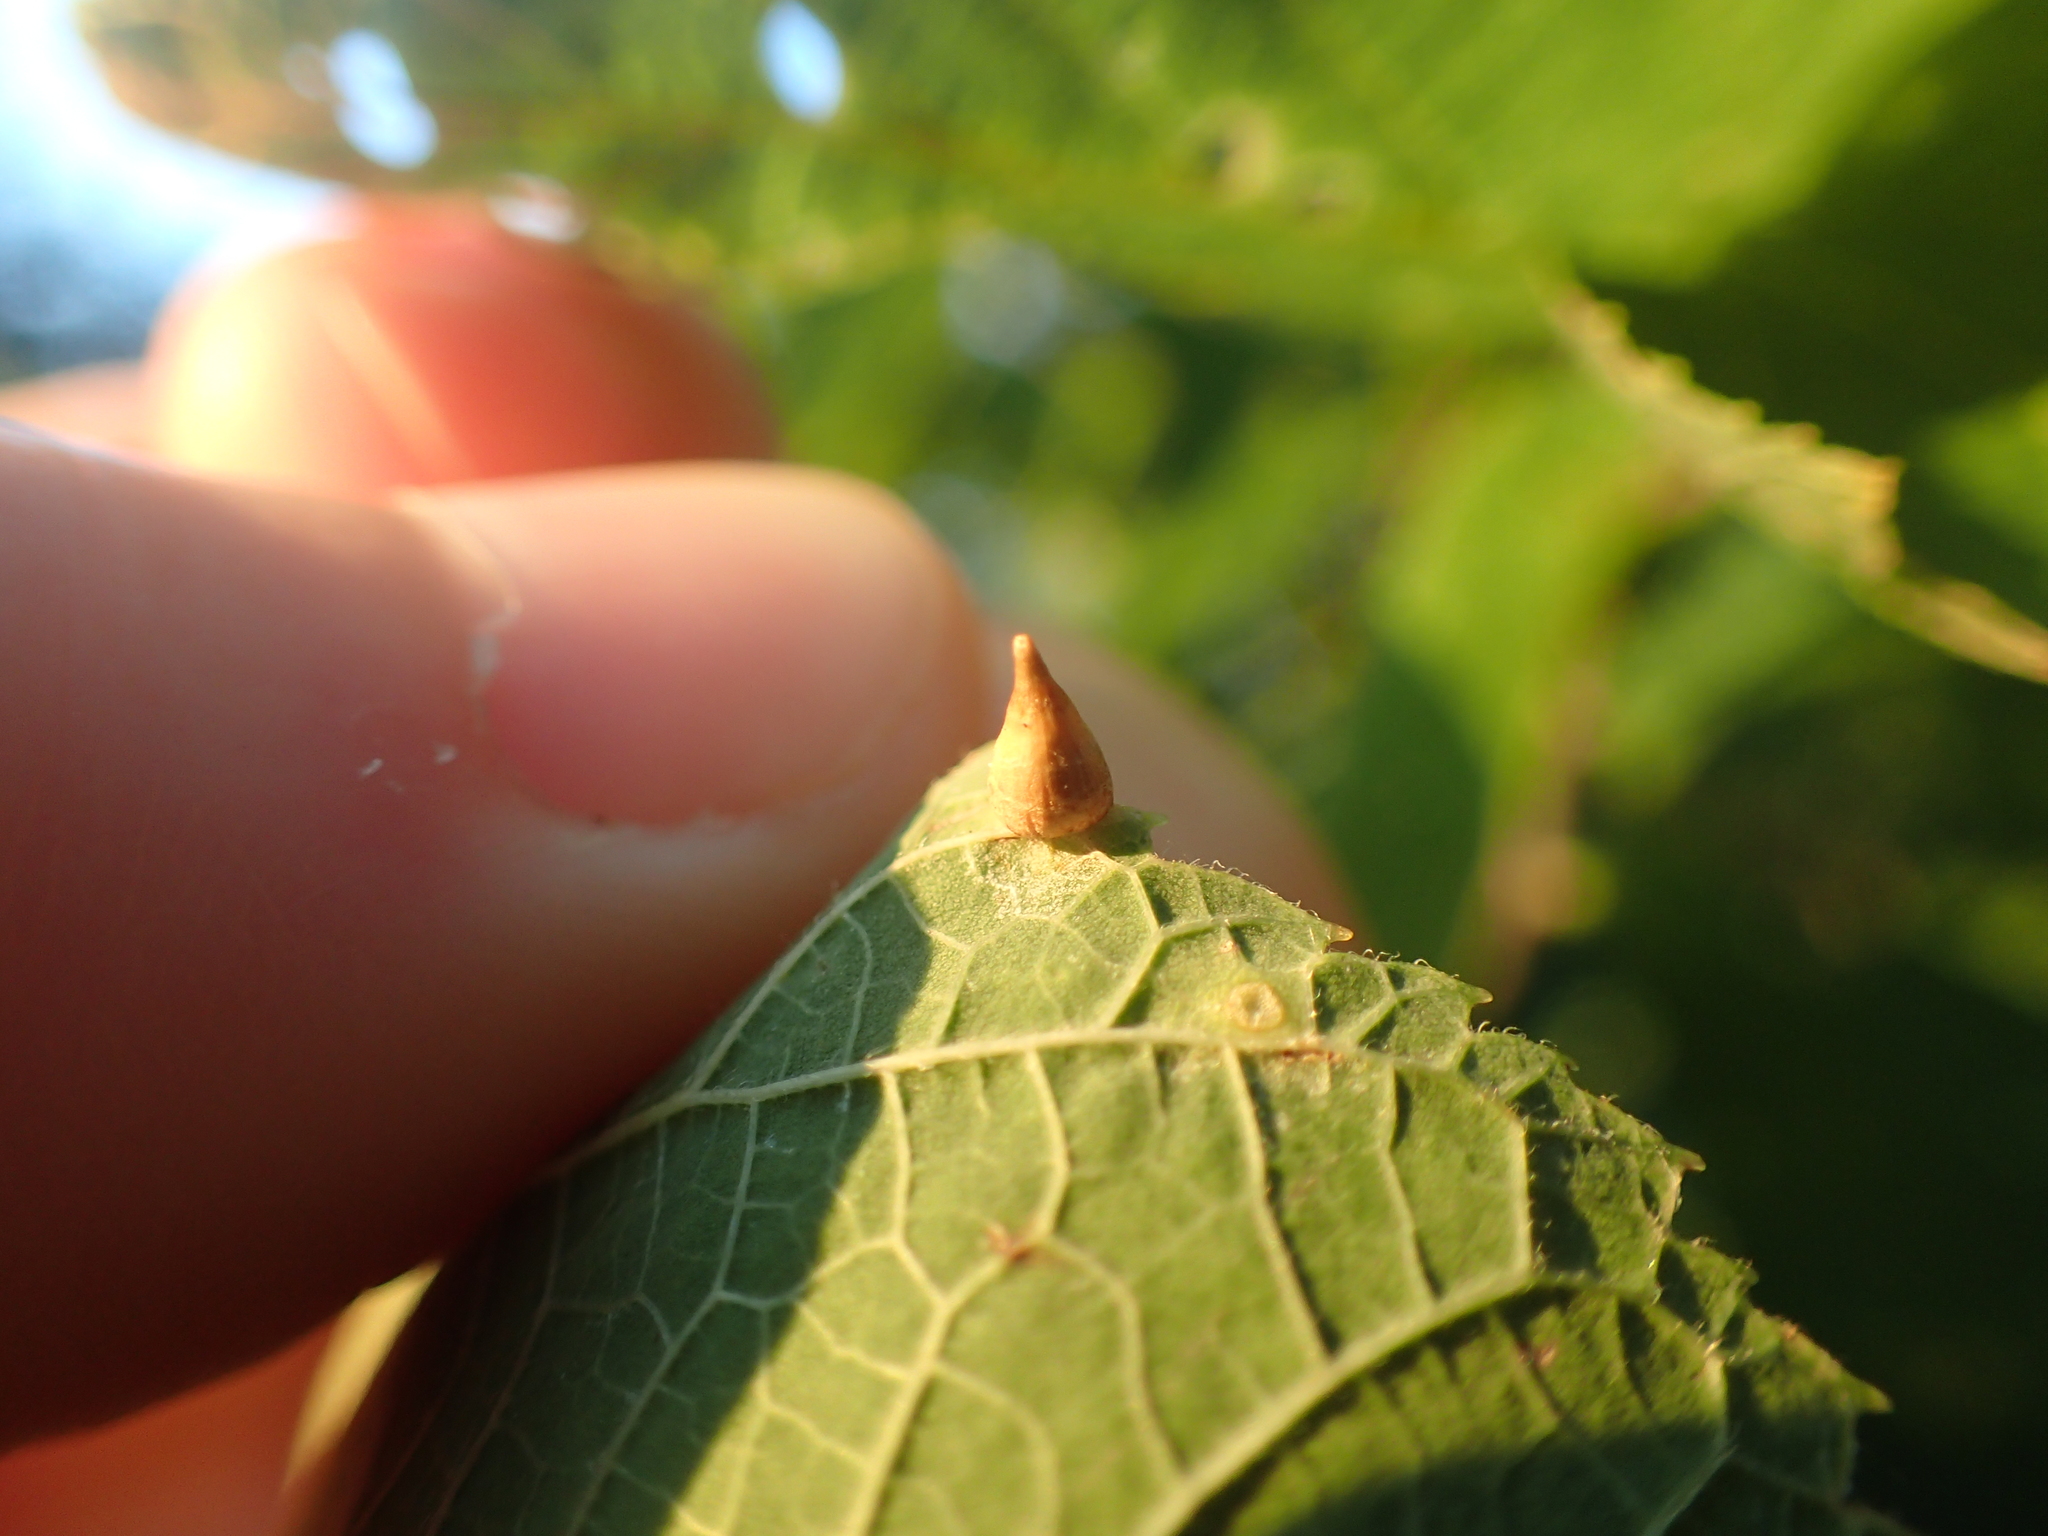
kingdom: Animalia
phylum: Arthropoda
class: Insecta
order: Diptera
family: Cecidomyiidae
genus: Celticecis
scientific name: Celticecis conica
